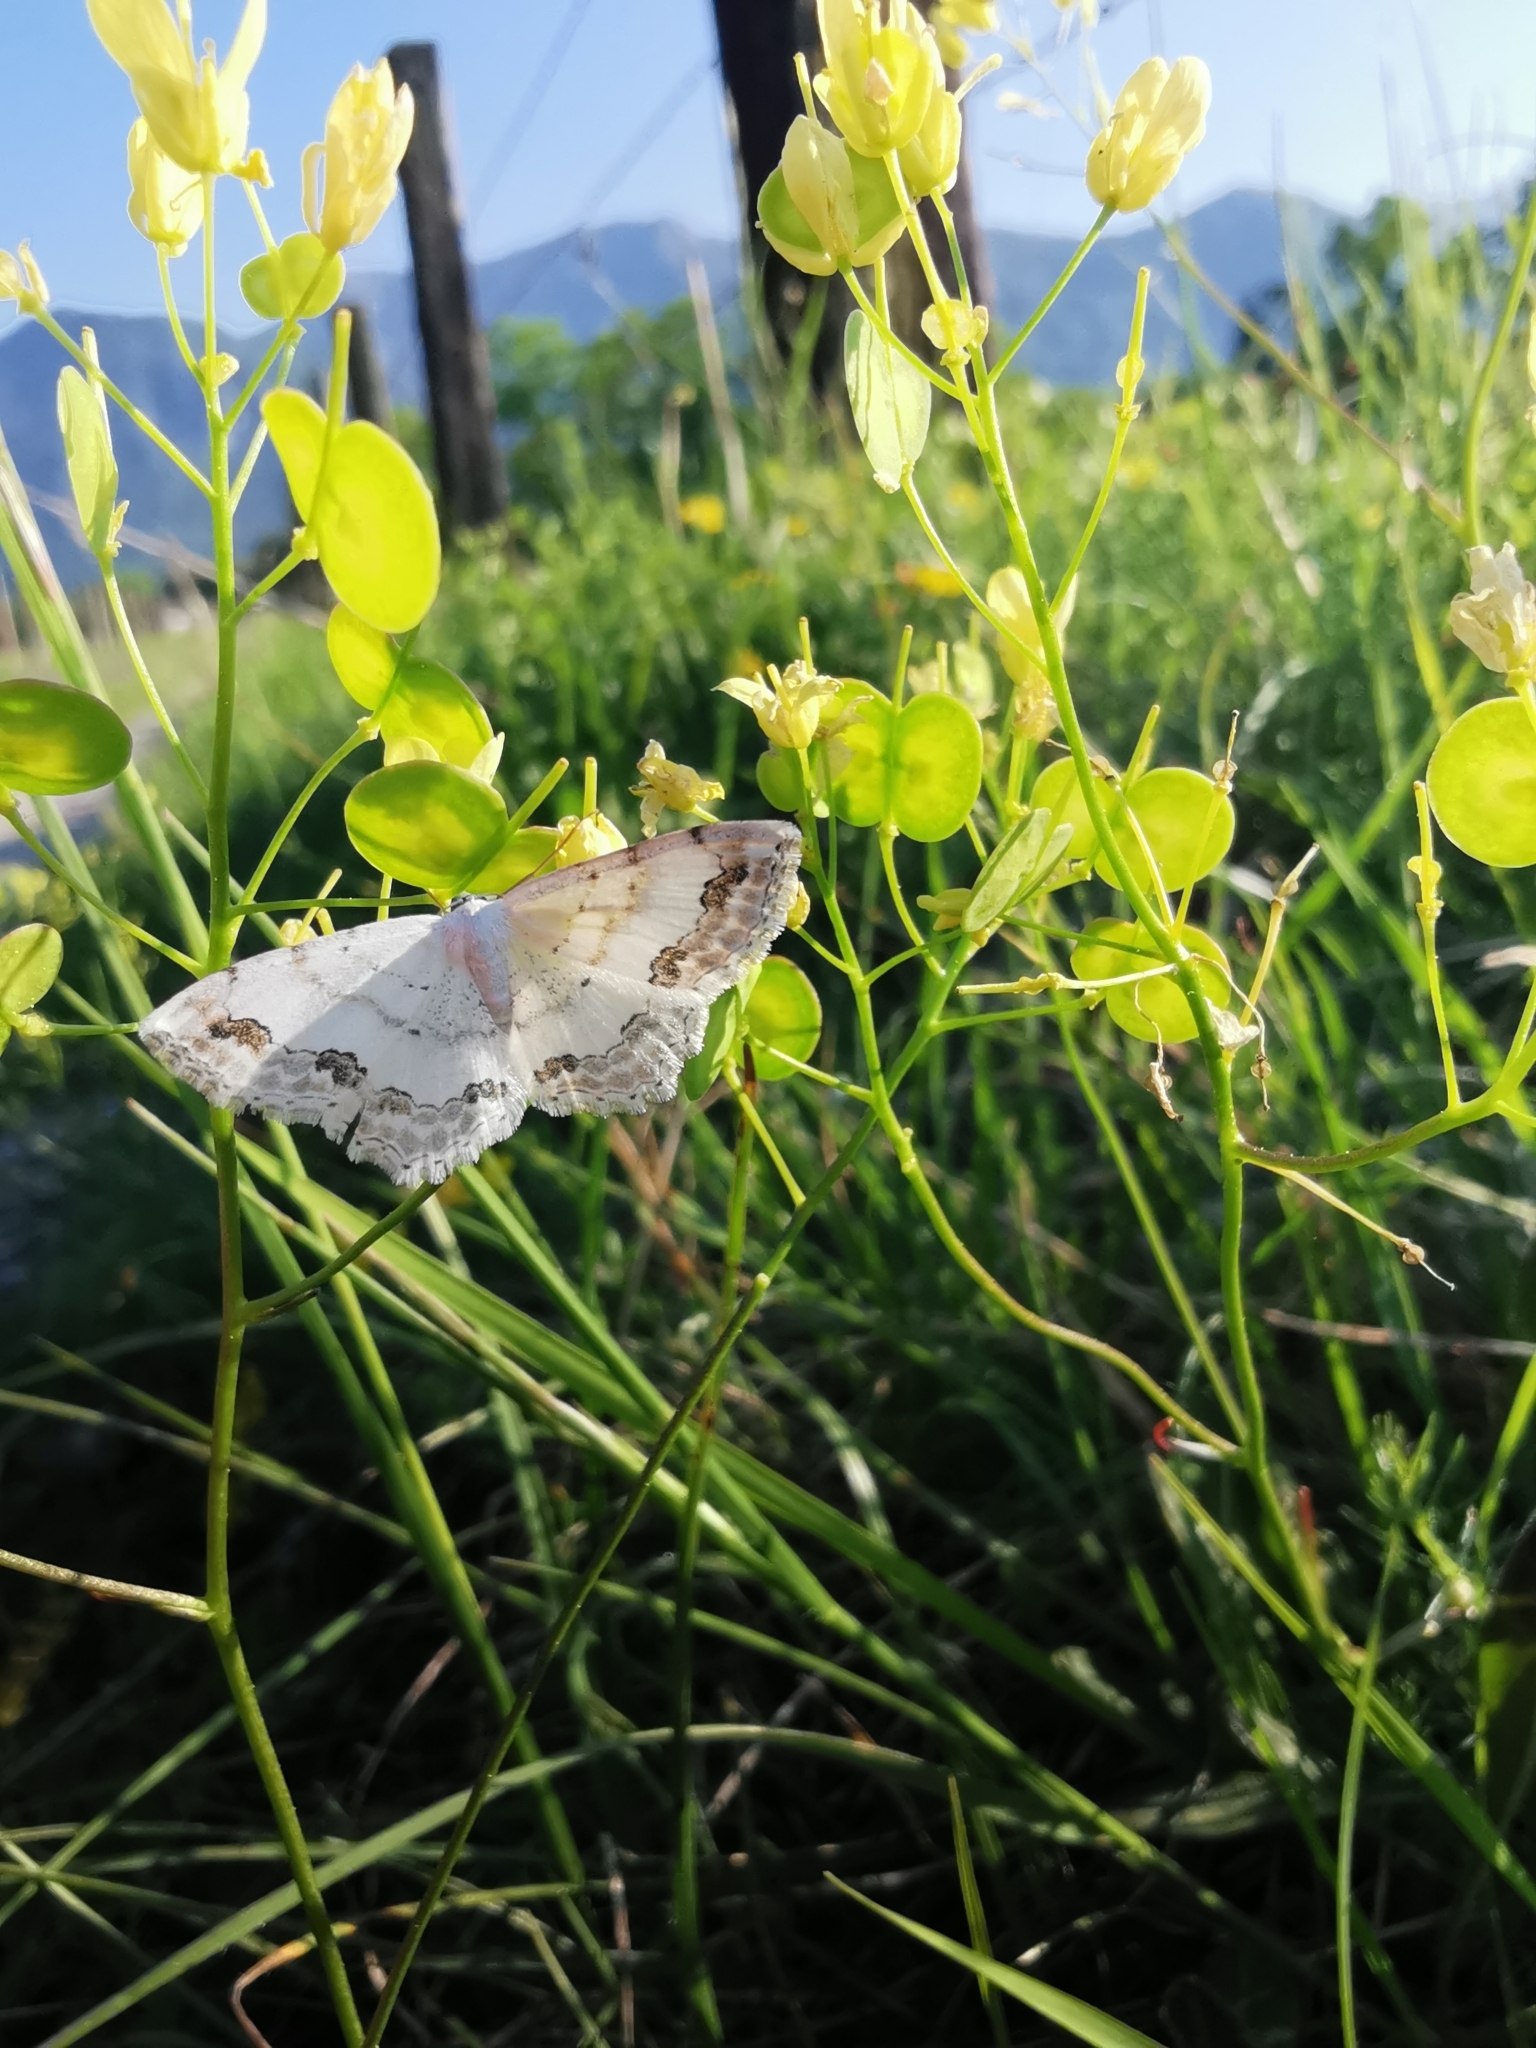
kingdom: Animalia
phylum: Arthropoda
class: Insecta
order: Lepidoptera
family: Geometridae
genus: Scopula
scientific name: Scopula ornata
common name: Lace border
